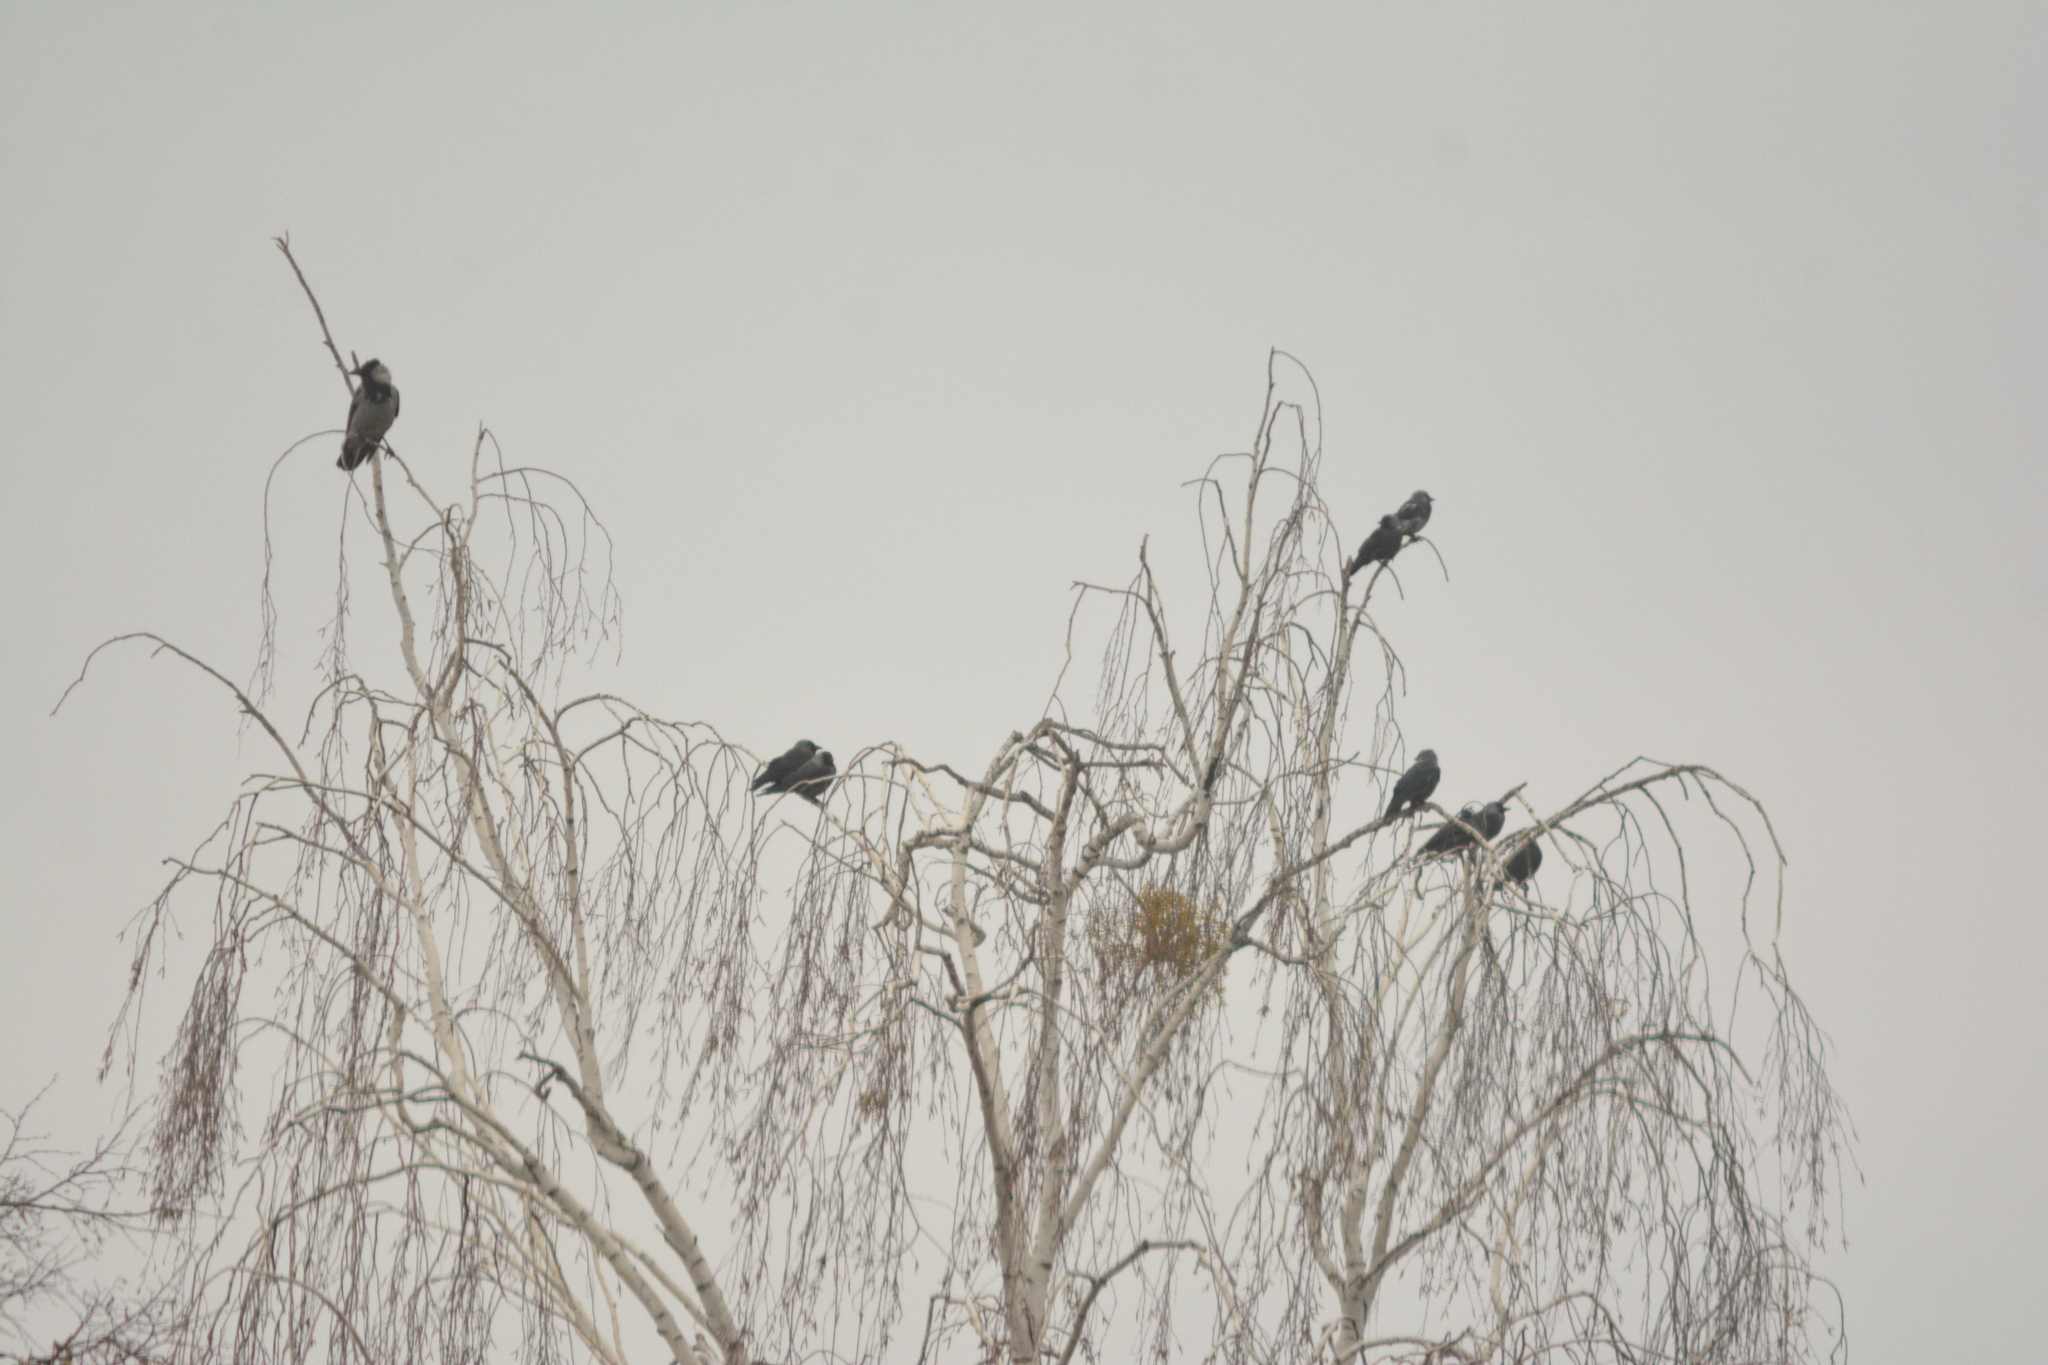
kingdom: Animalia
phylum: Chordata
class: Aves
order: Passeriformes
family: Corvidae
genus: Coloeus
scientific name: Coloeus monedula
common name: Western jackdaw
